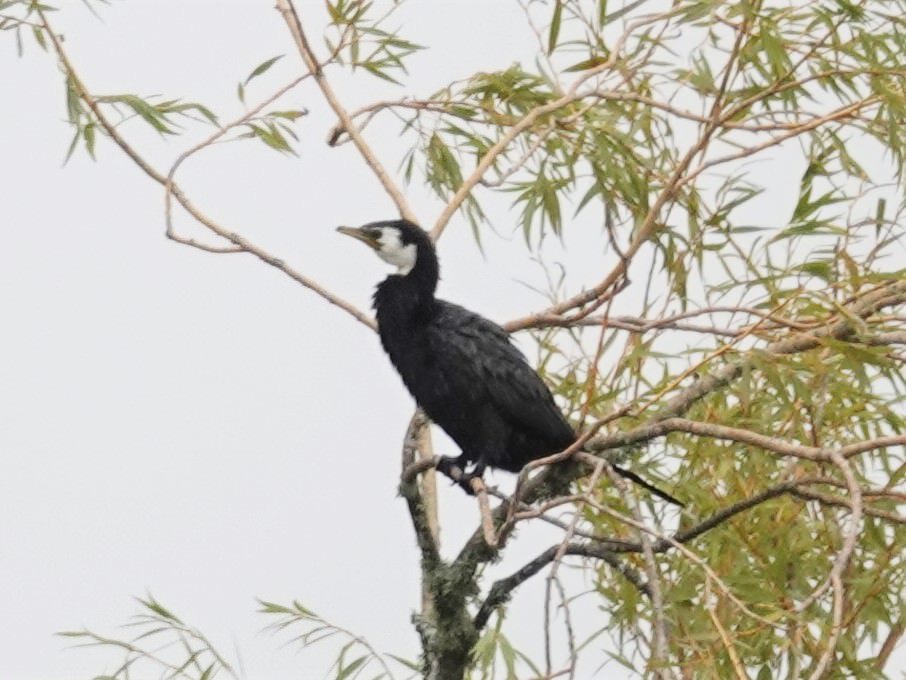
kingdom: Animalia
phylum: Chordata
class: Aves
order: Suliformes
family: Phalacrocoracidae
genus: Microcarbo
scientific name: Microcarbo melanoleucos
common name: Little pied cormorant
